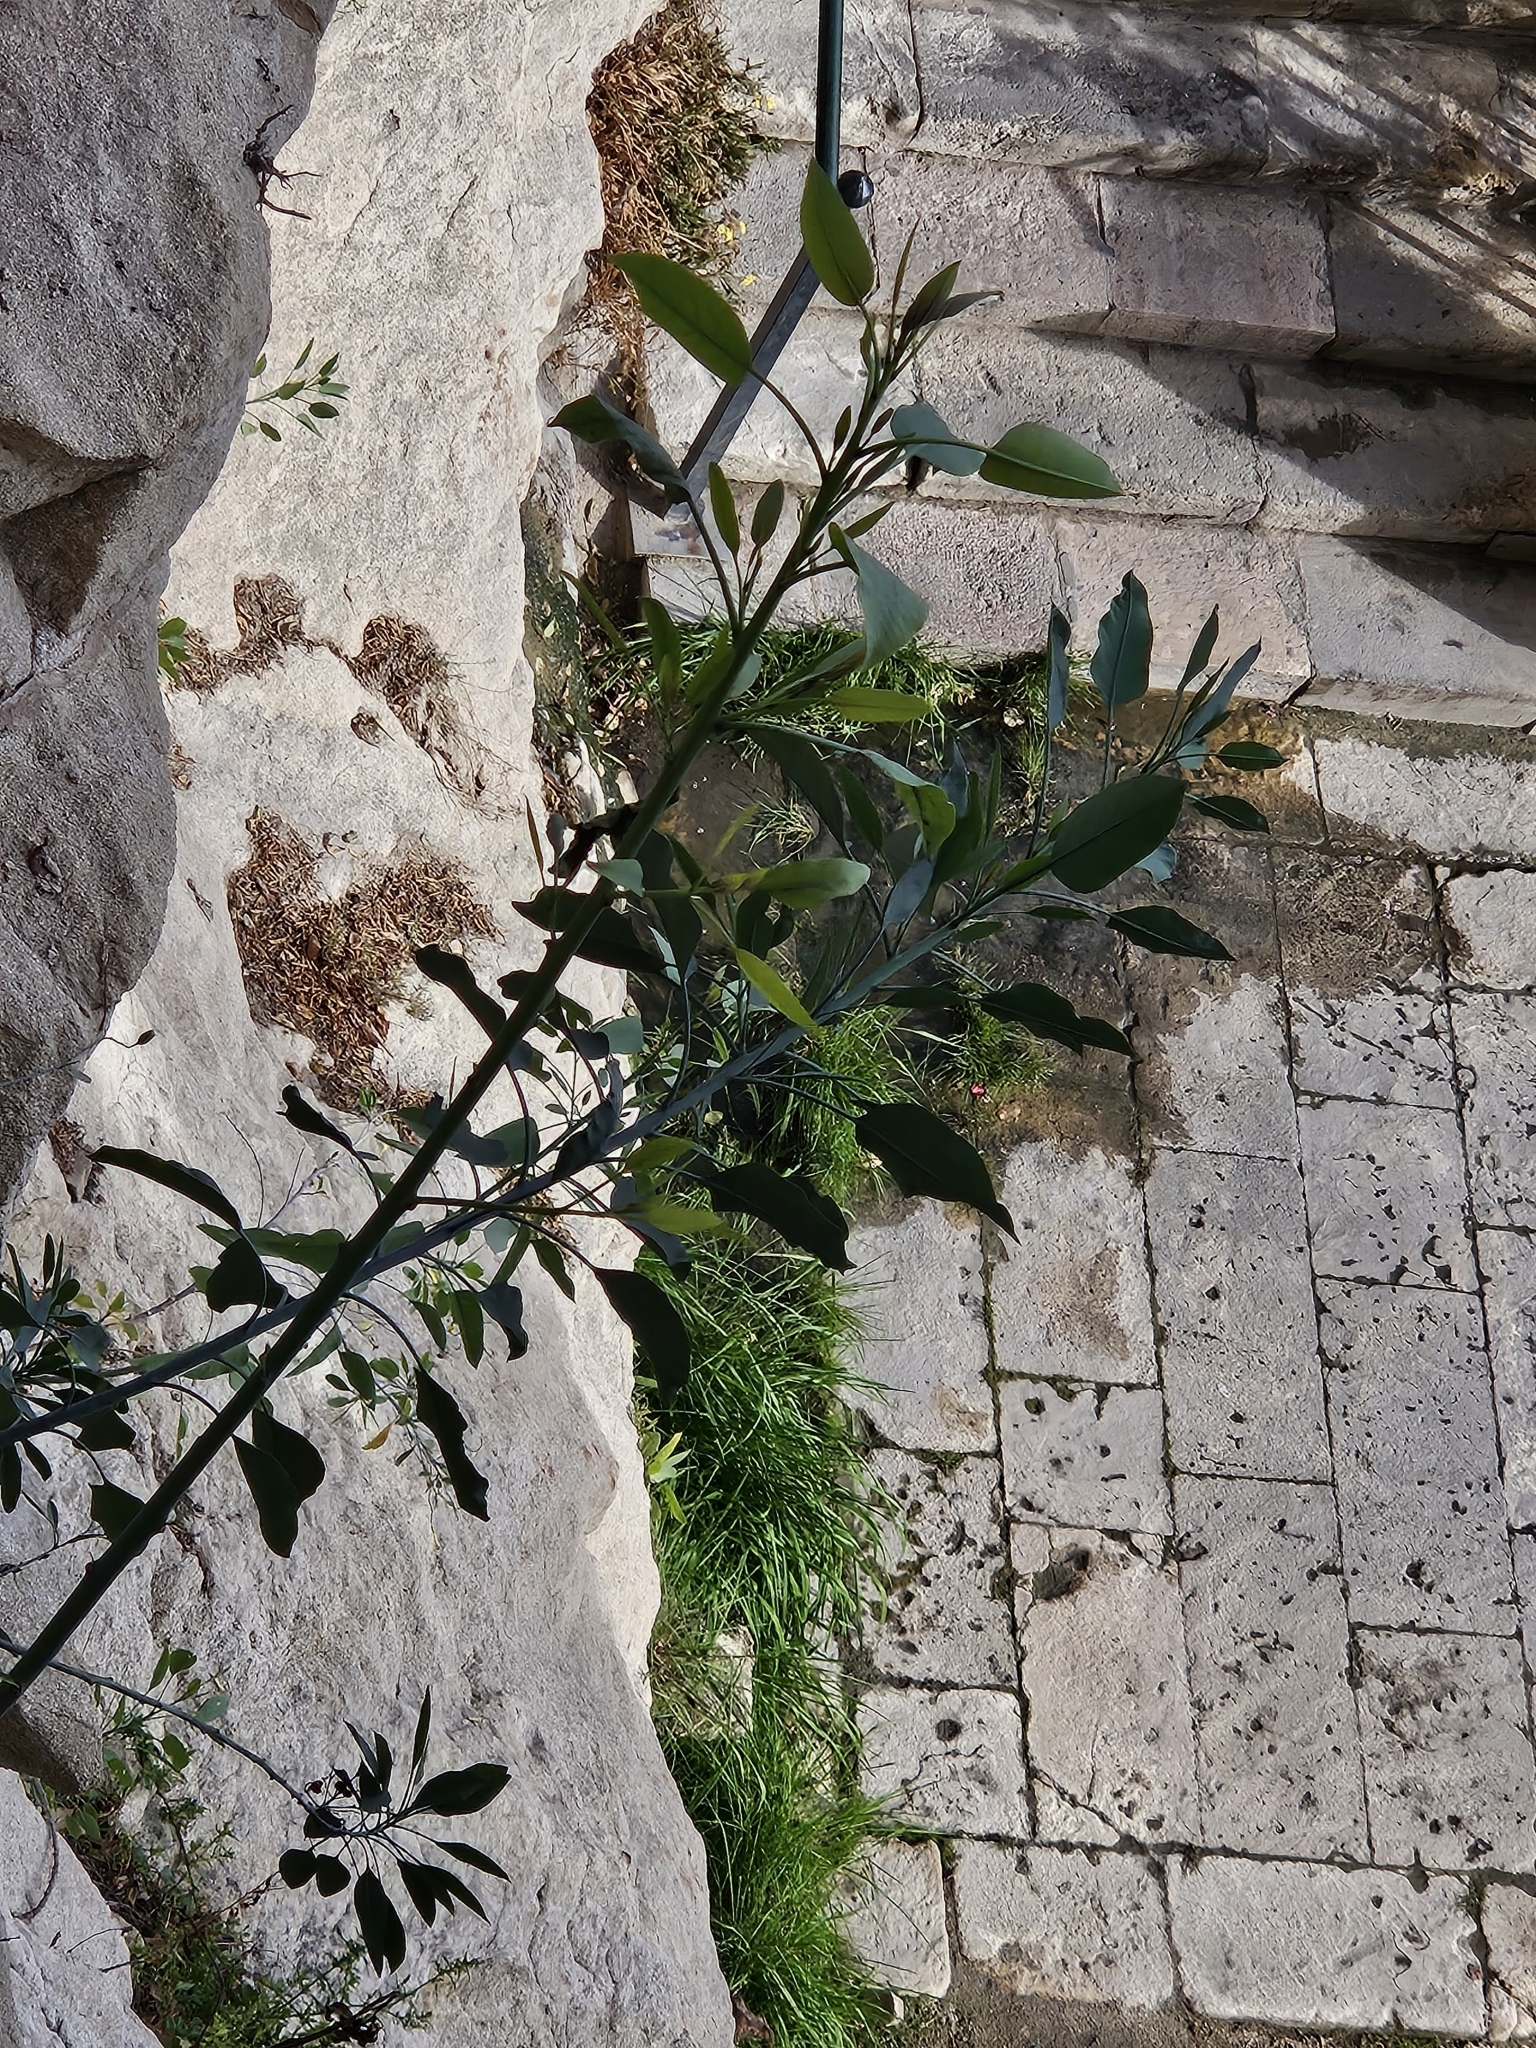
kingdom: Plantae
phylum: Tracheophyta
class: Magnoliopsida
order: Solanales
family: Solanaceae
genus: Nicotiana
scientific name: Nicotiana glauca
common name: Tree tobacco
